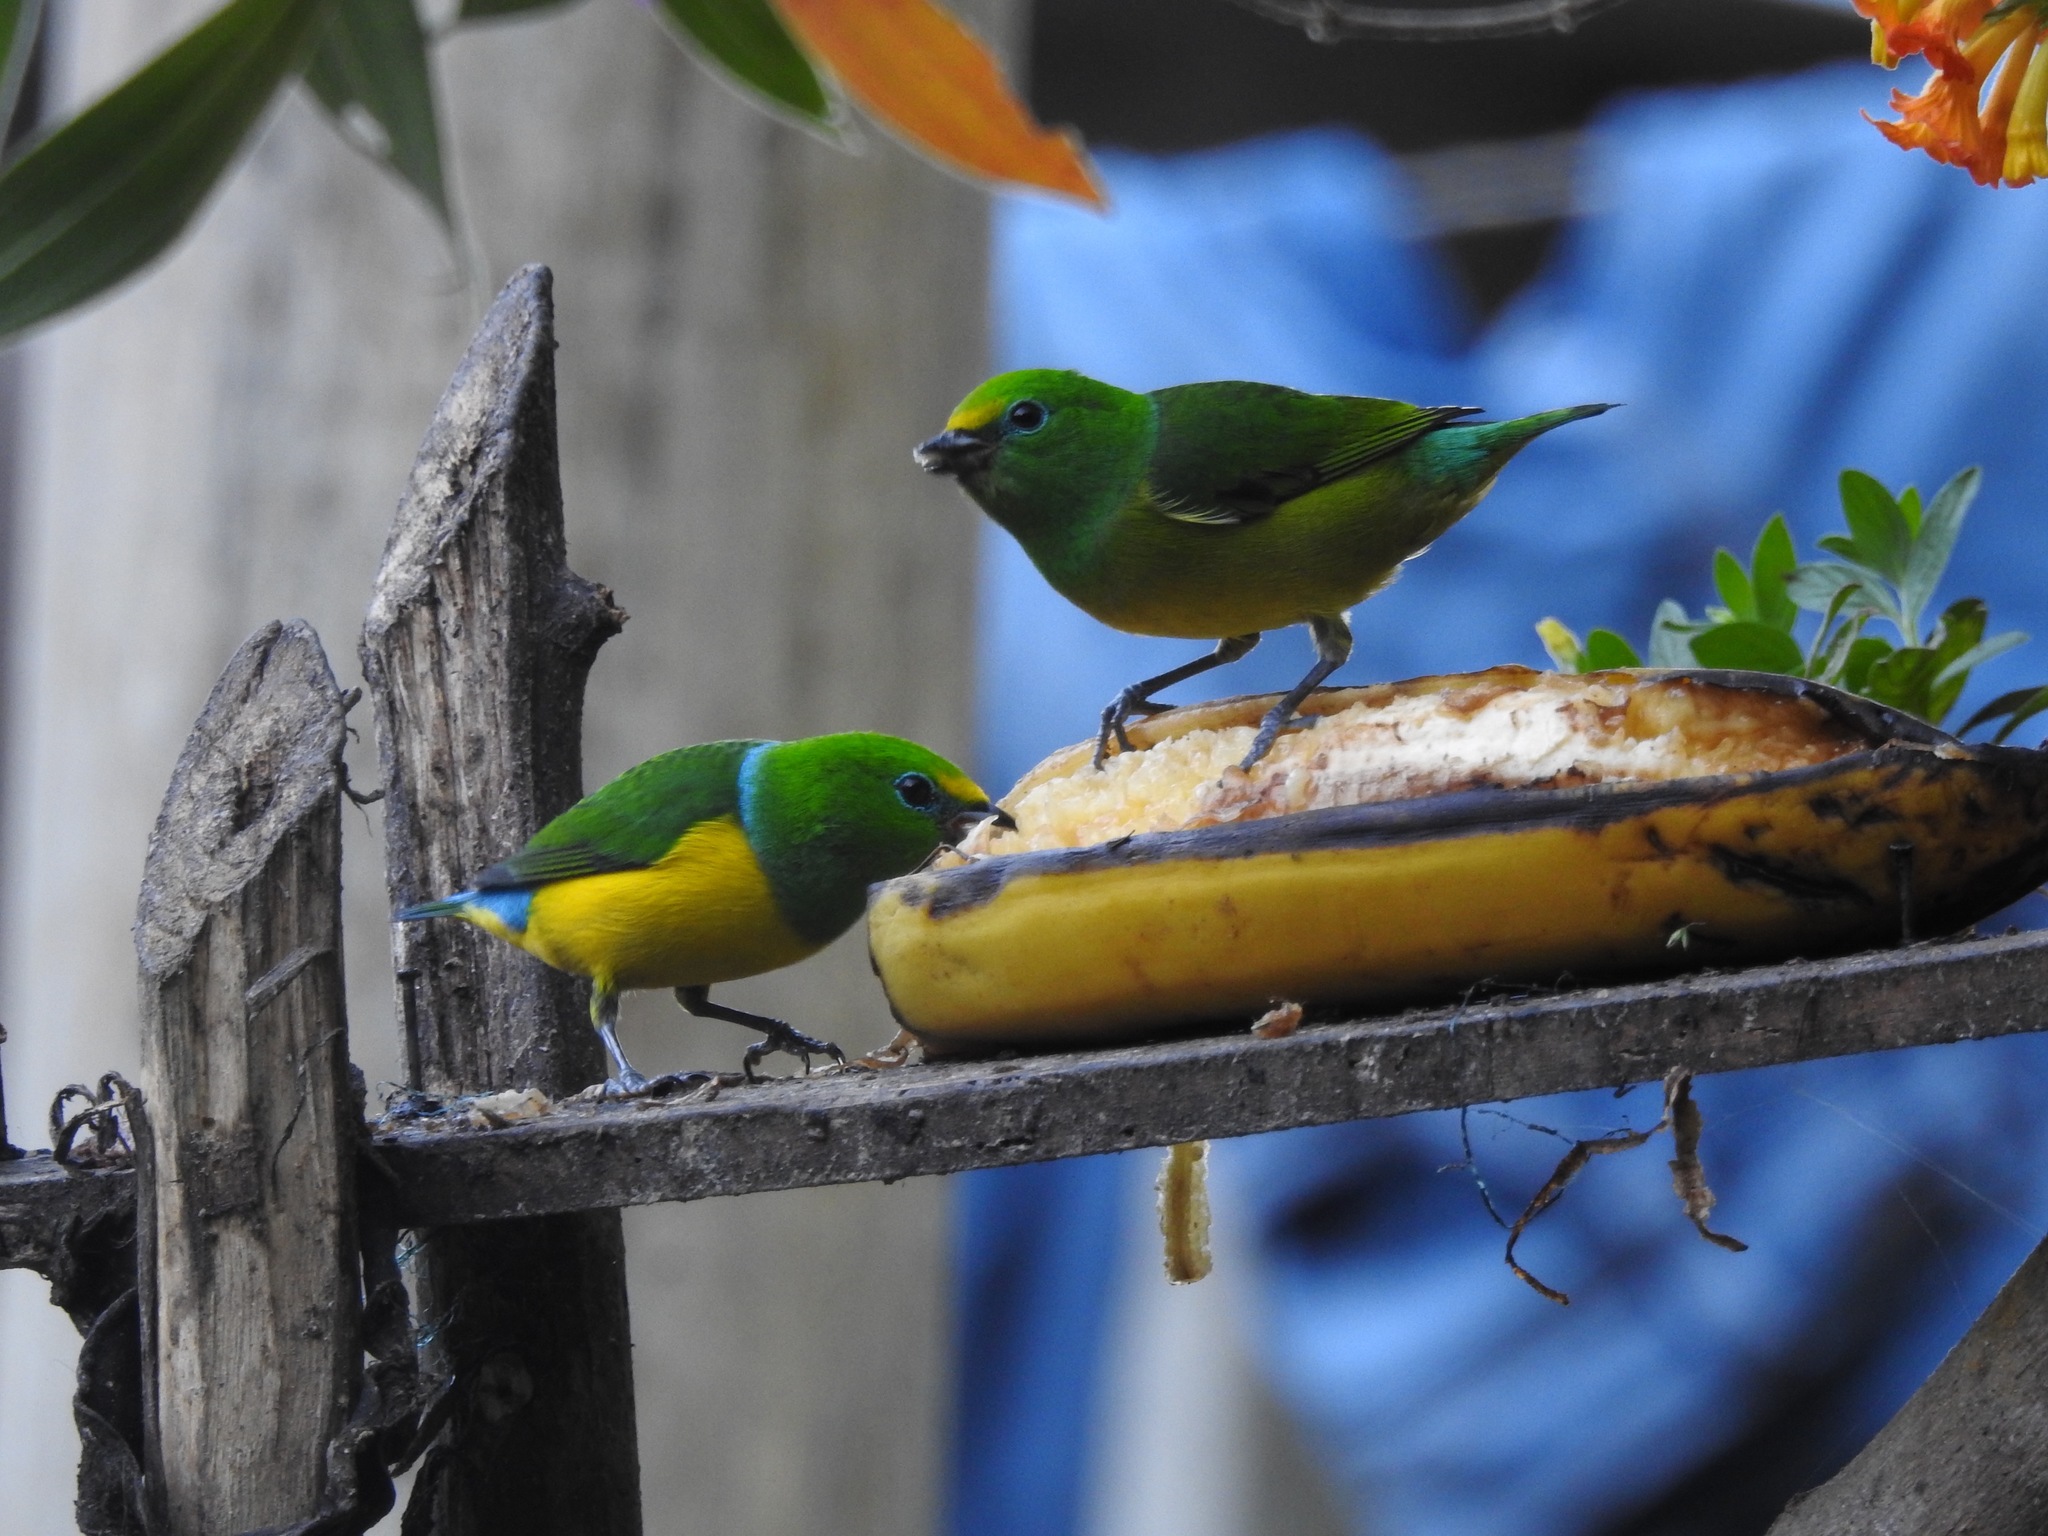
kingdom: Animalia
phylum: Chordata
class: Aves
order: Passeriformes
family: Fringillidae
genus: Chlorophonia
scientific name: Chlorophonia cyanea
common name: Blue-naped chlorophonia
